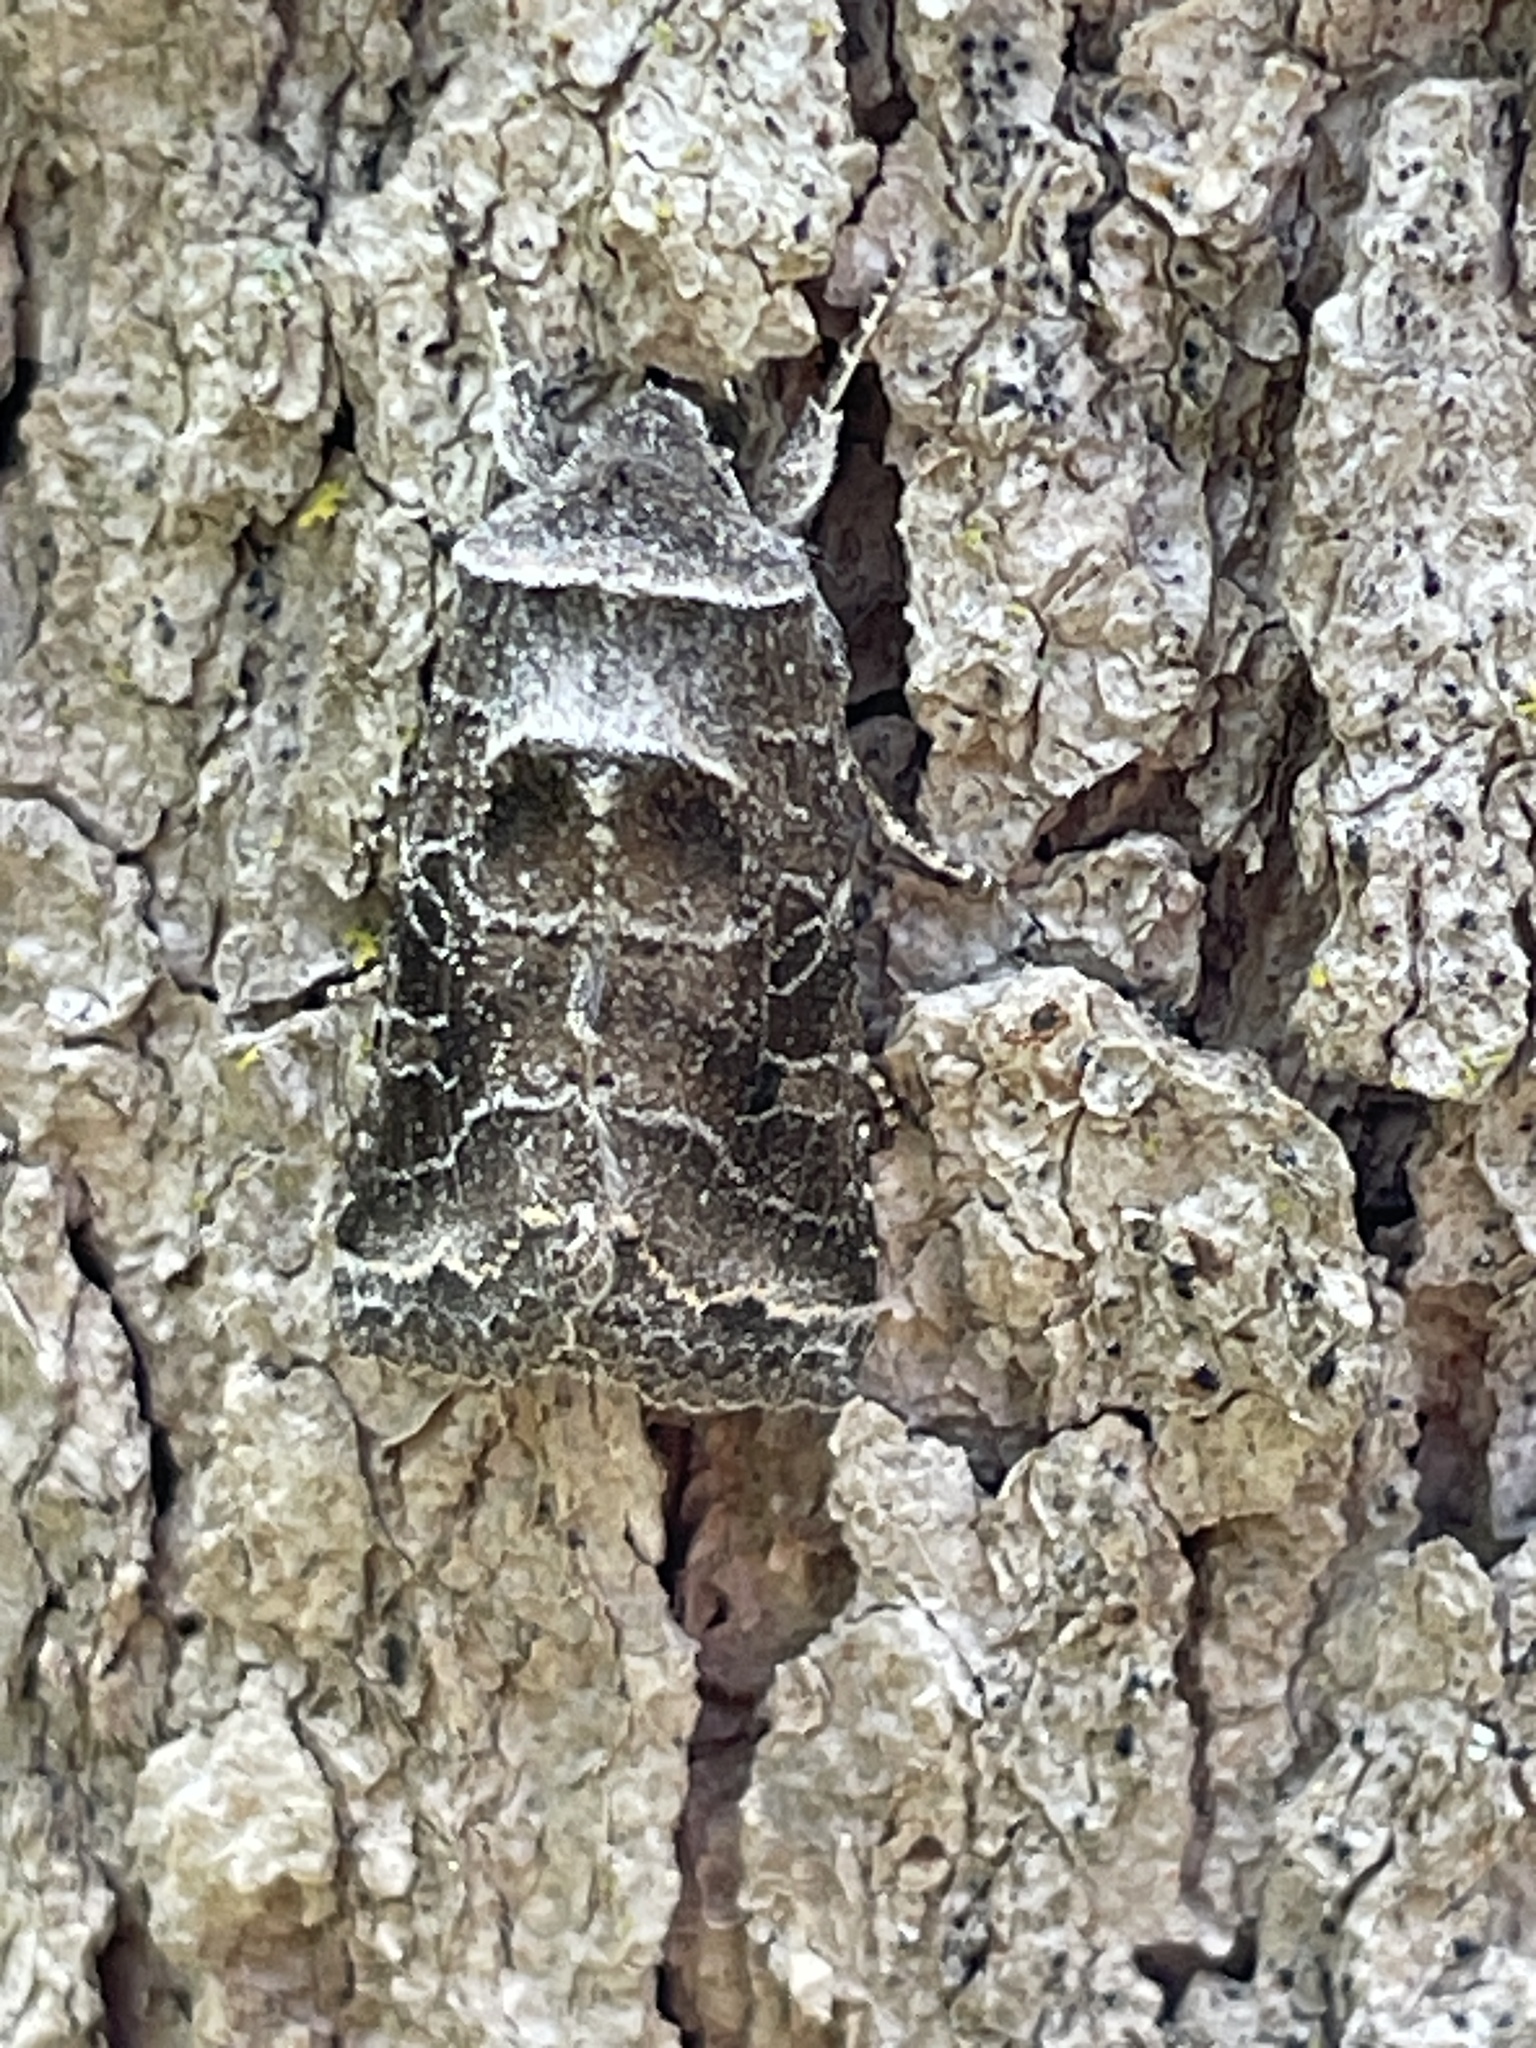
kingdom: Animalia
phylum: Arthropoda
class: Insecta
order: Lepidoptera
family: Noctuidae
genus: Lacinipolia
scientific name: Lacinipolia erecta
